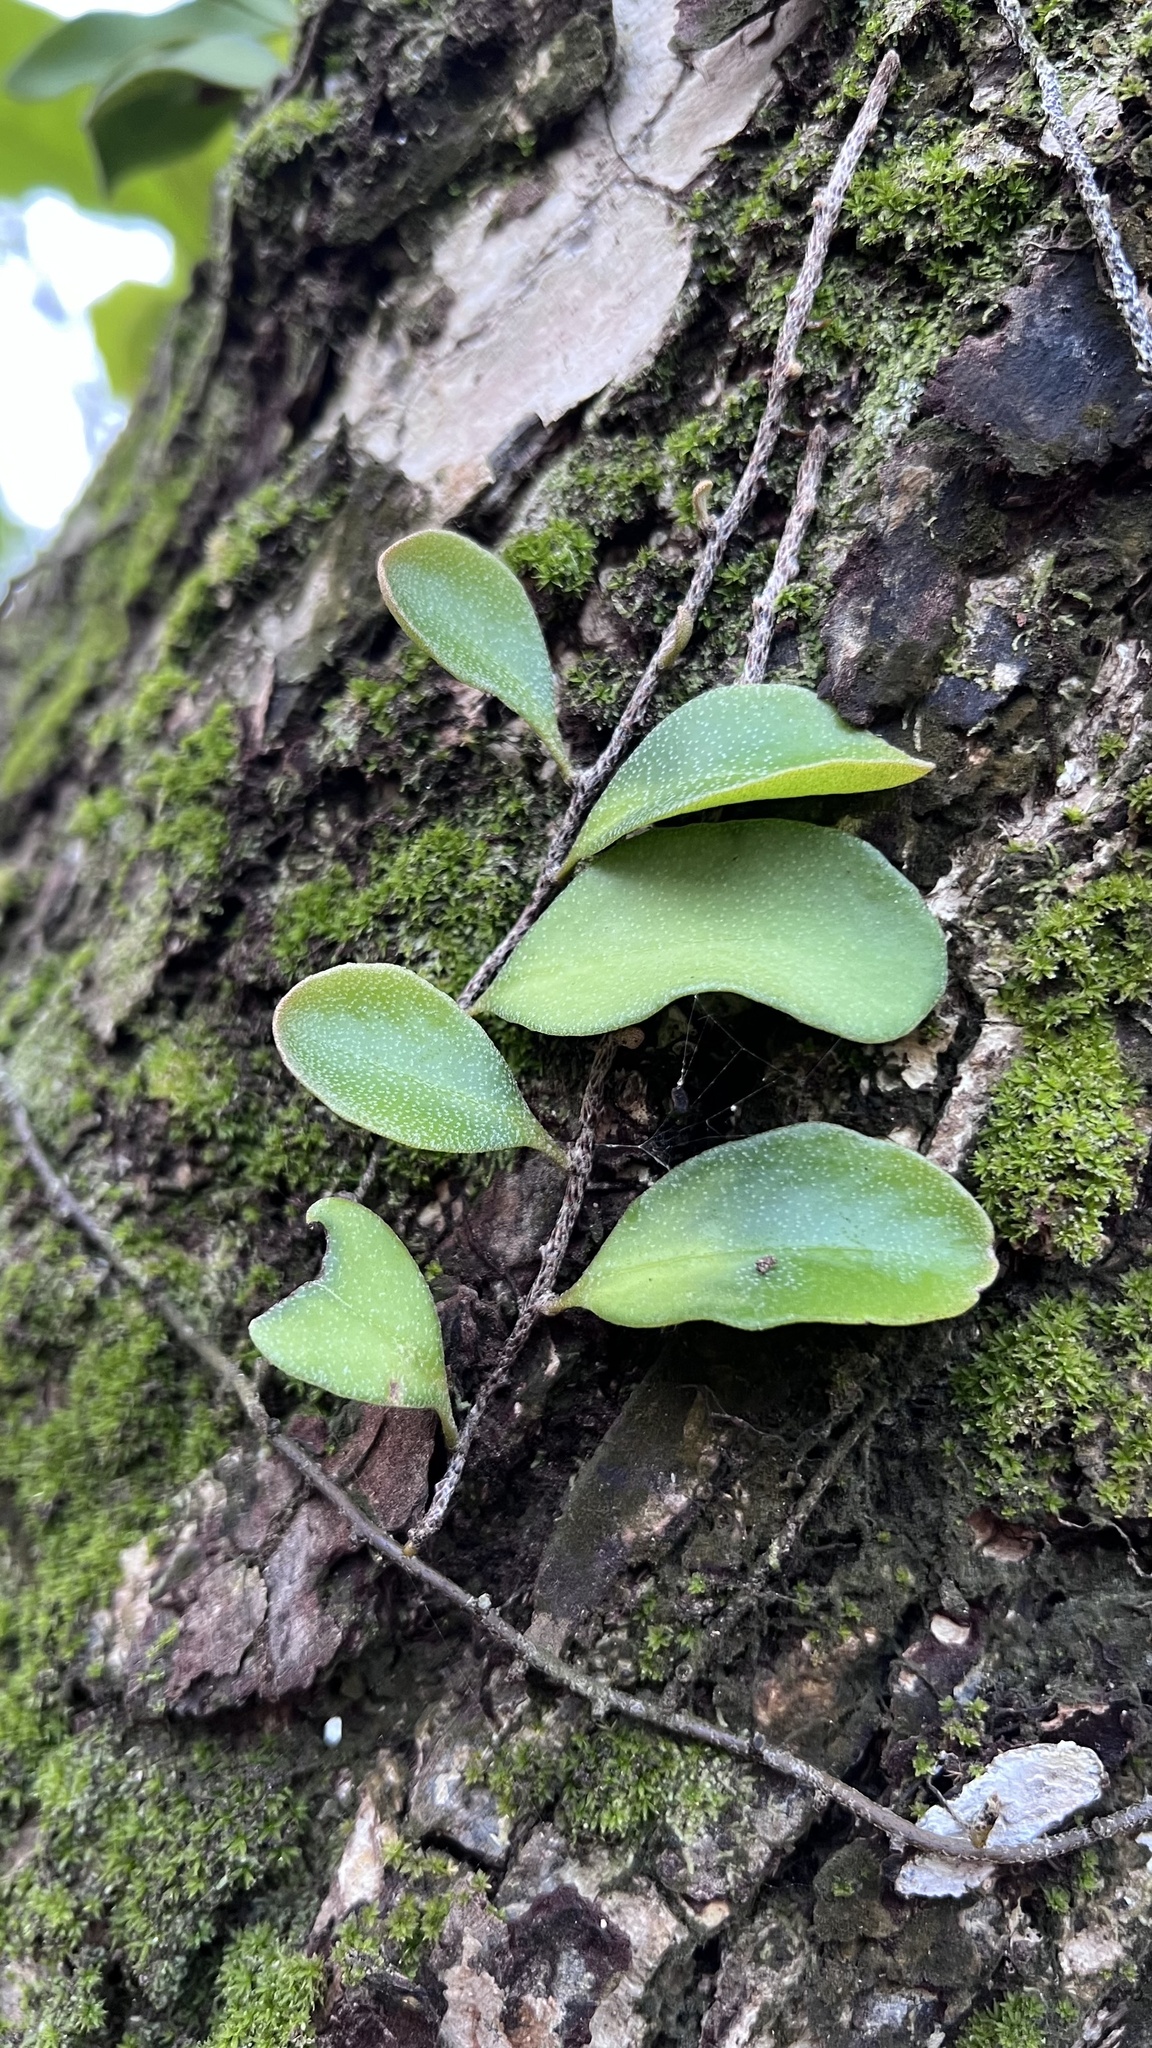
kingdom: Plantae
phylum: Tracheophyta
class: Polypodiopsida
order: Polypodiales
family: Polypodiaceae
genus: Pyrrosia
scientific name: Pyrrosia lanceolata
